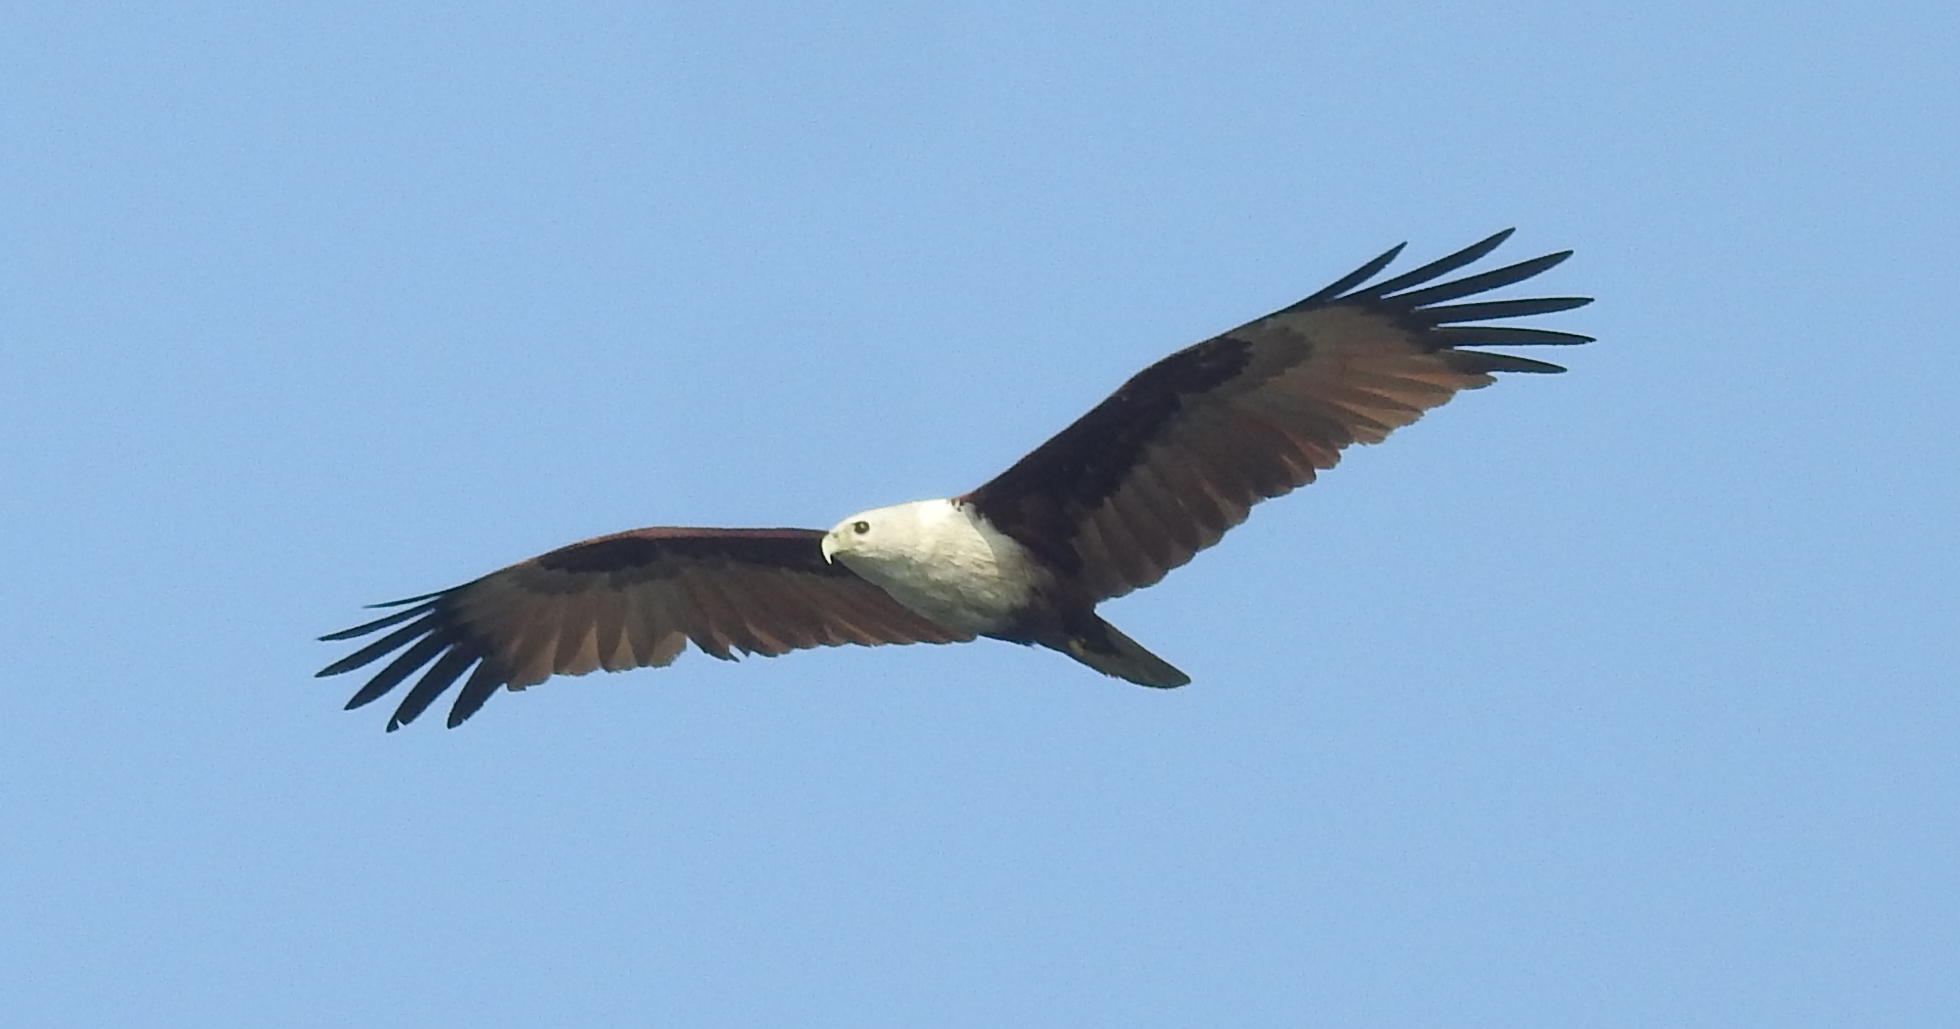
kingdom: Animalia
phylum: Chordata
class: Aves
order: Accipitriformes
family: Accipitridae
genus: Haliastur
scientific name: Haliastur indus
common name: Brahminy kite
